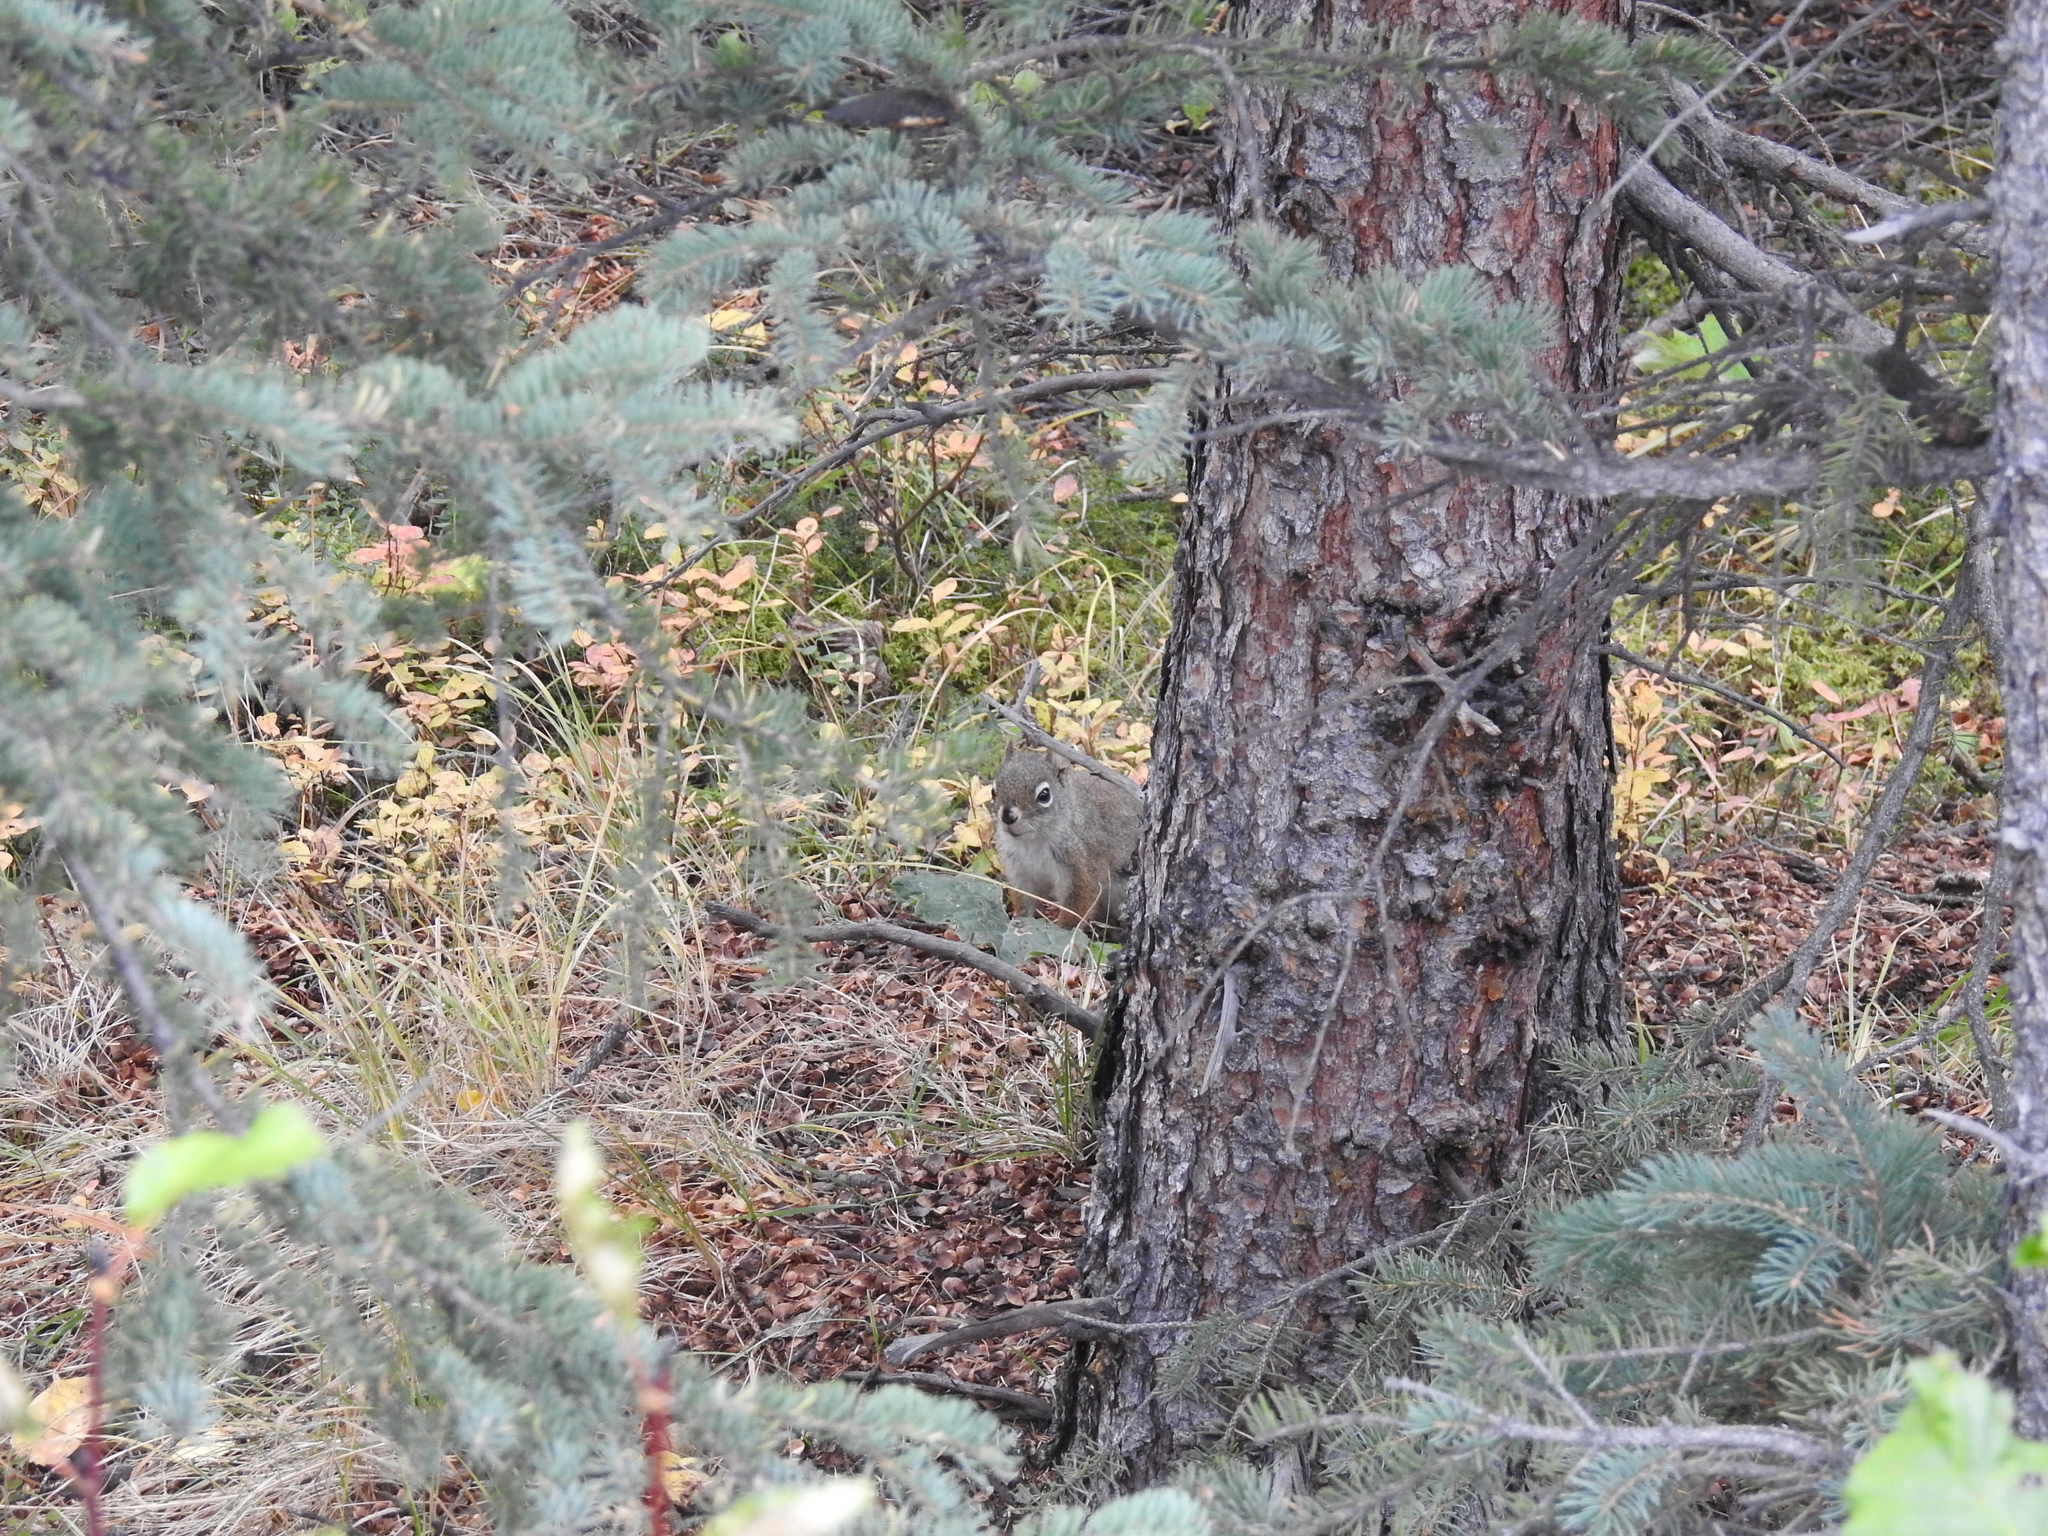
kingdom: Animalia
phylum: Chordata
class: Mammalia
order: Rodentia
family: Sciuridae
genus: Tamiasciurus
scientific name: Tamiasciurus hudsonicus
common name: Red squirrel
